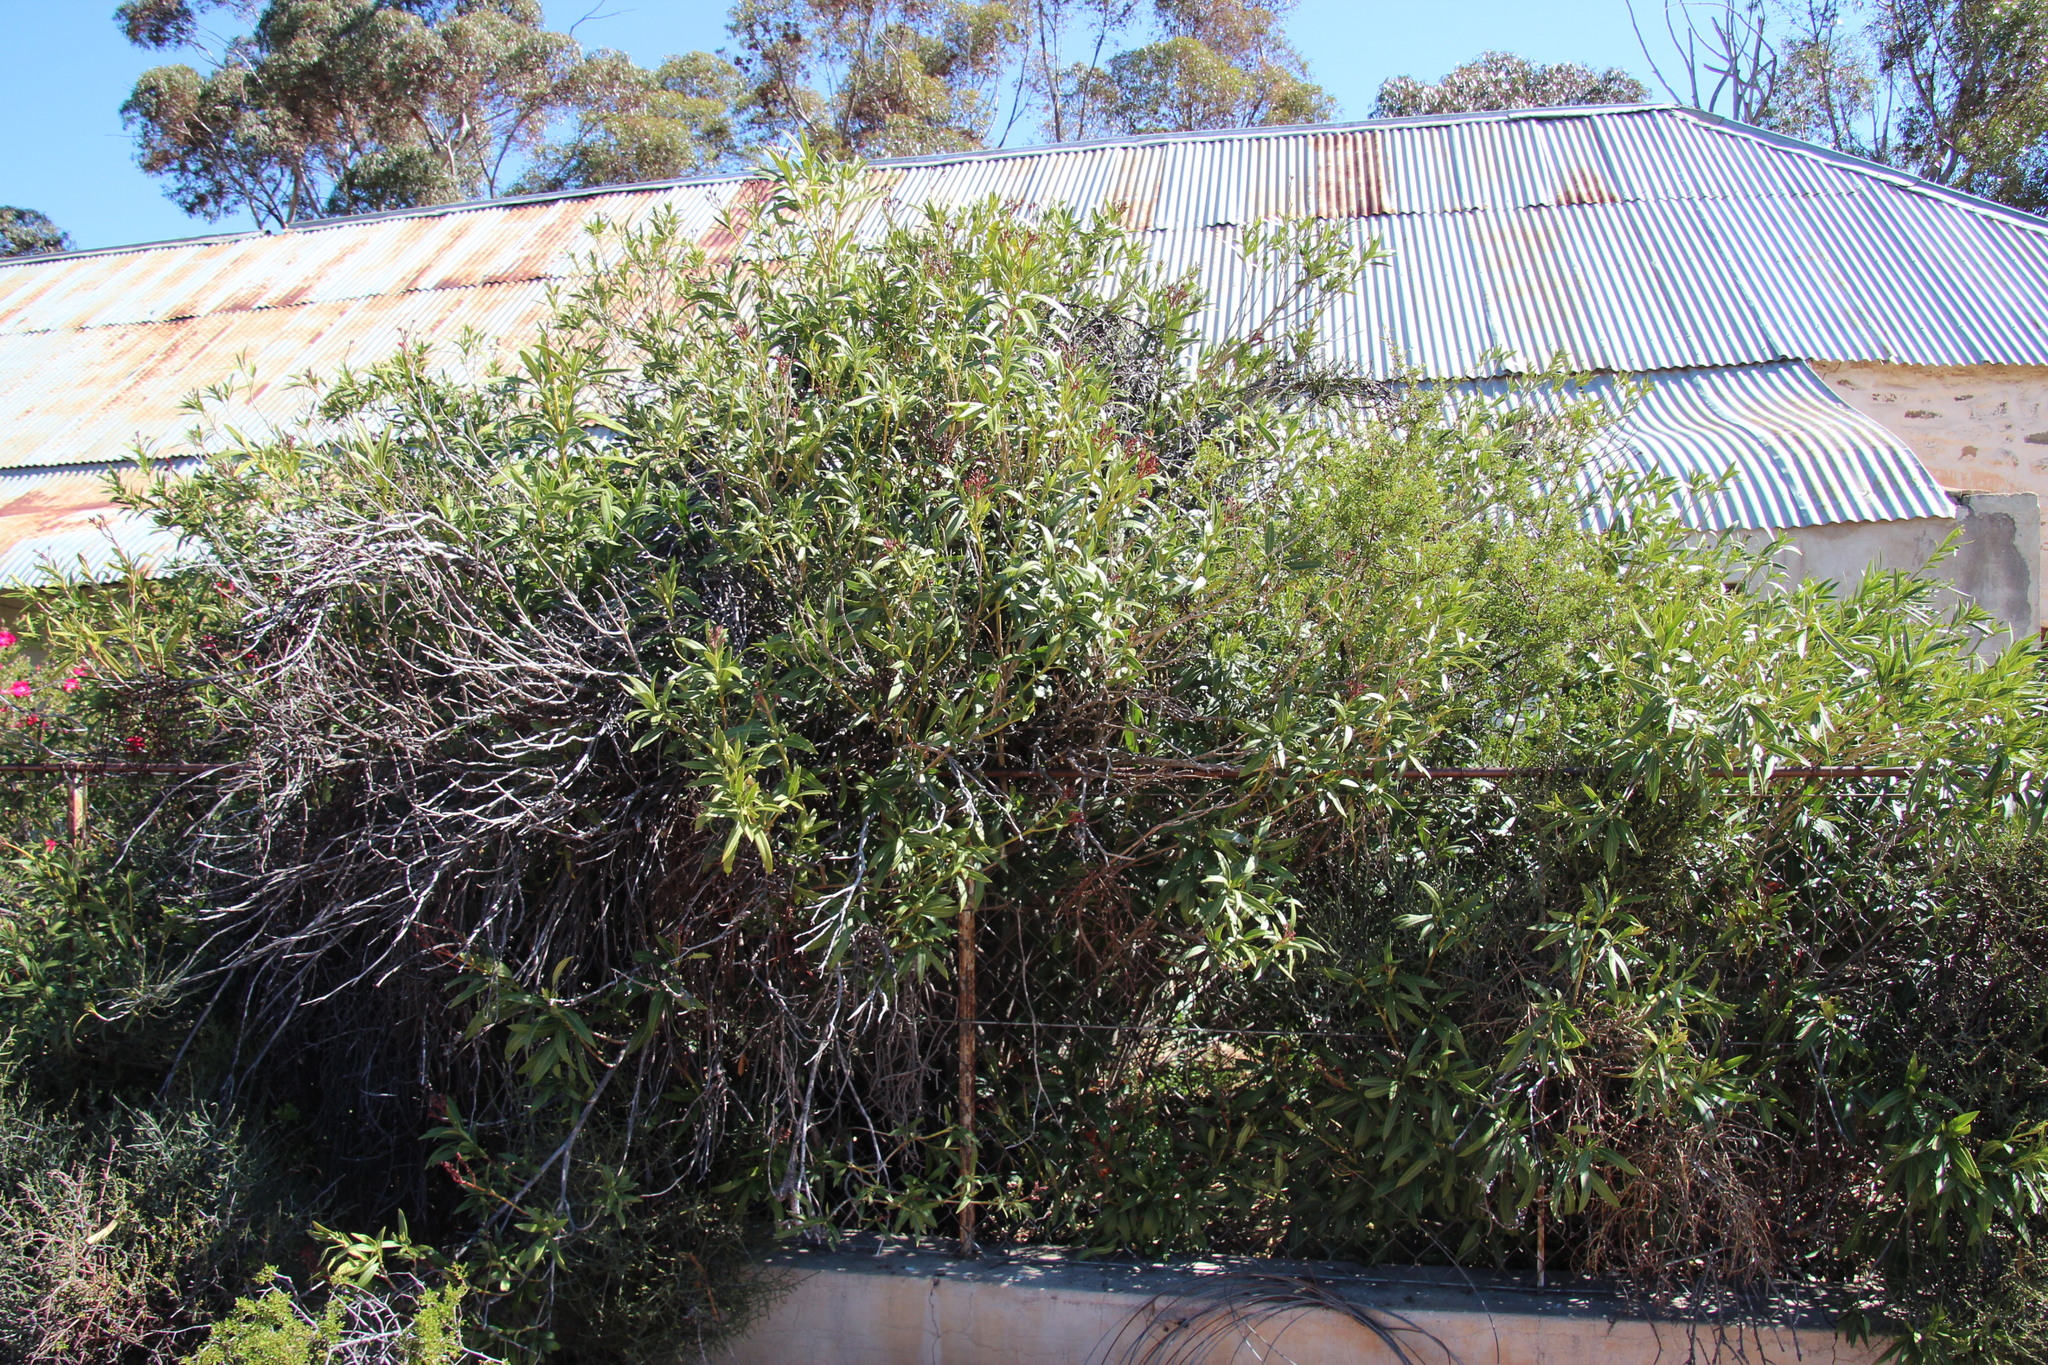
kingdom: Plantae
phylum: Tracheophyta
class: Magnoliopsida
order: Gentianales
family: Apocynaceae
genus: Nerium
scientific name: Nerium oleander
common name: Oleander
